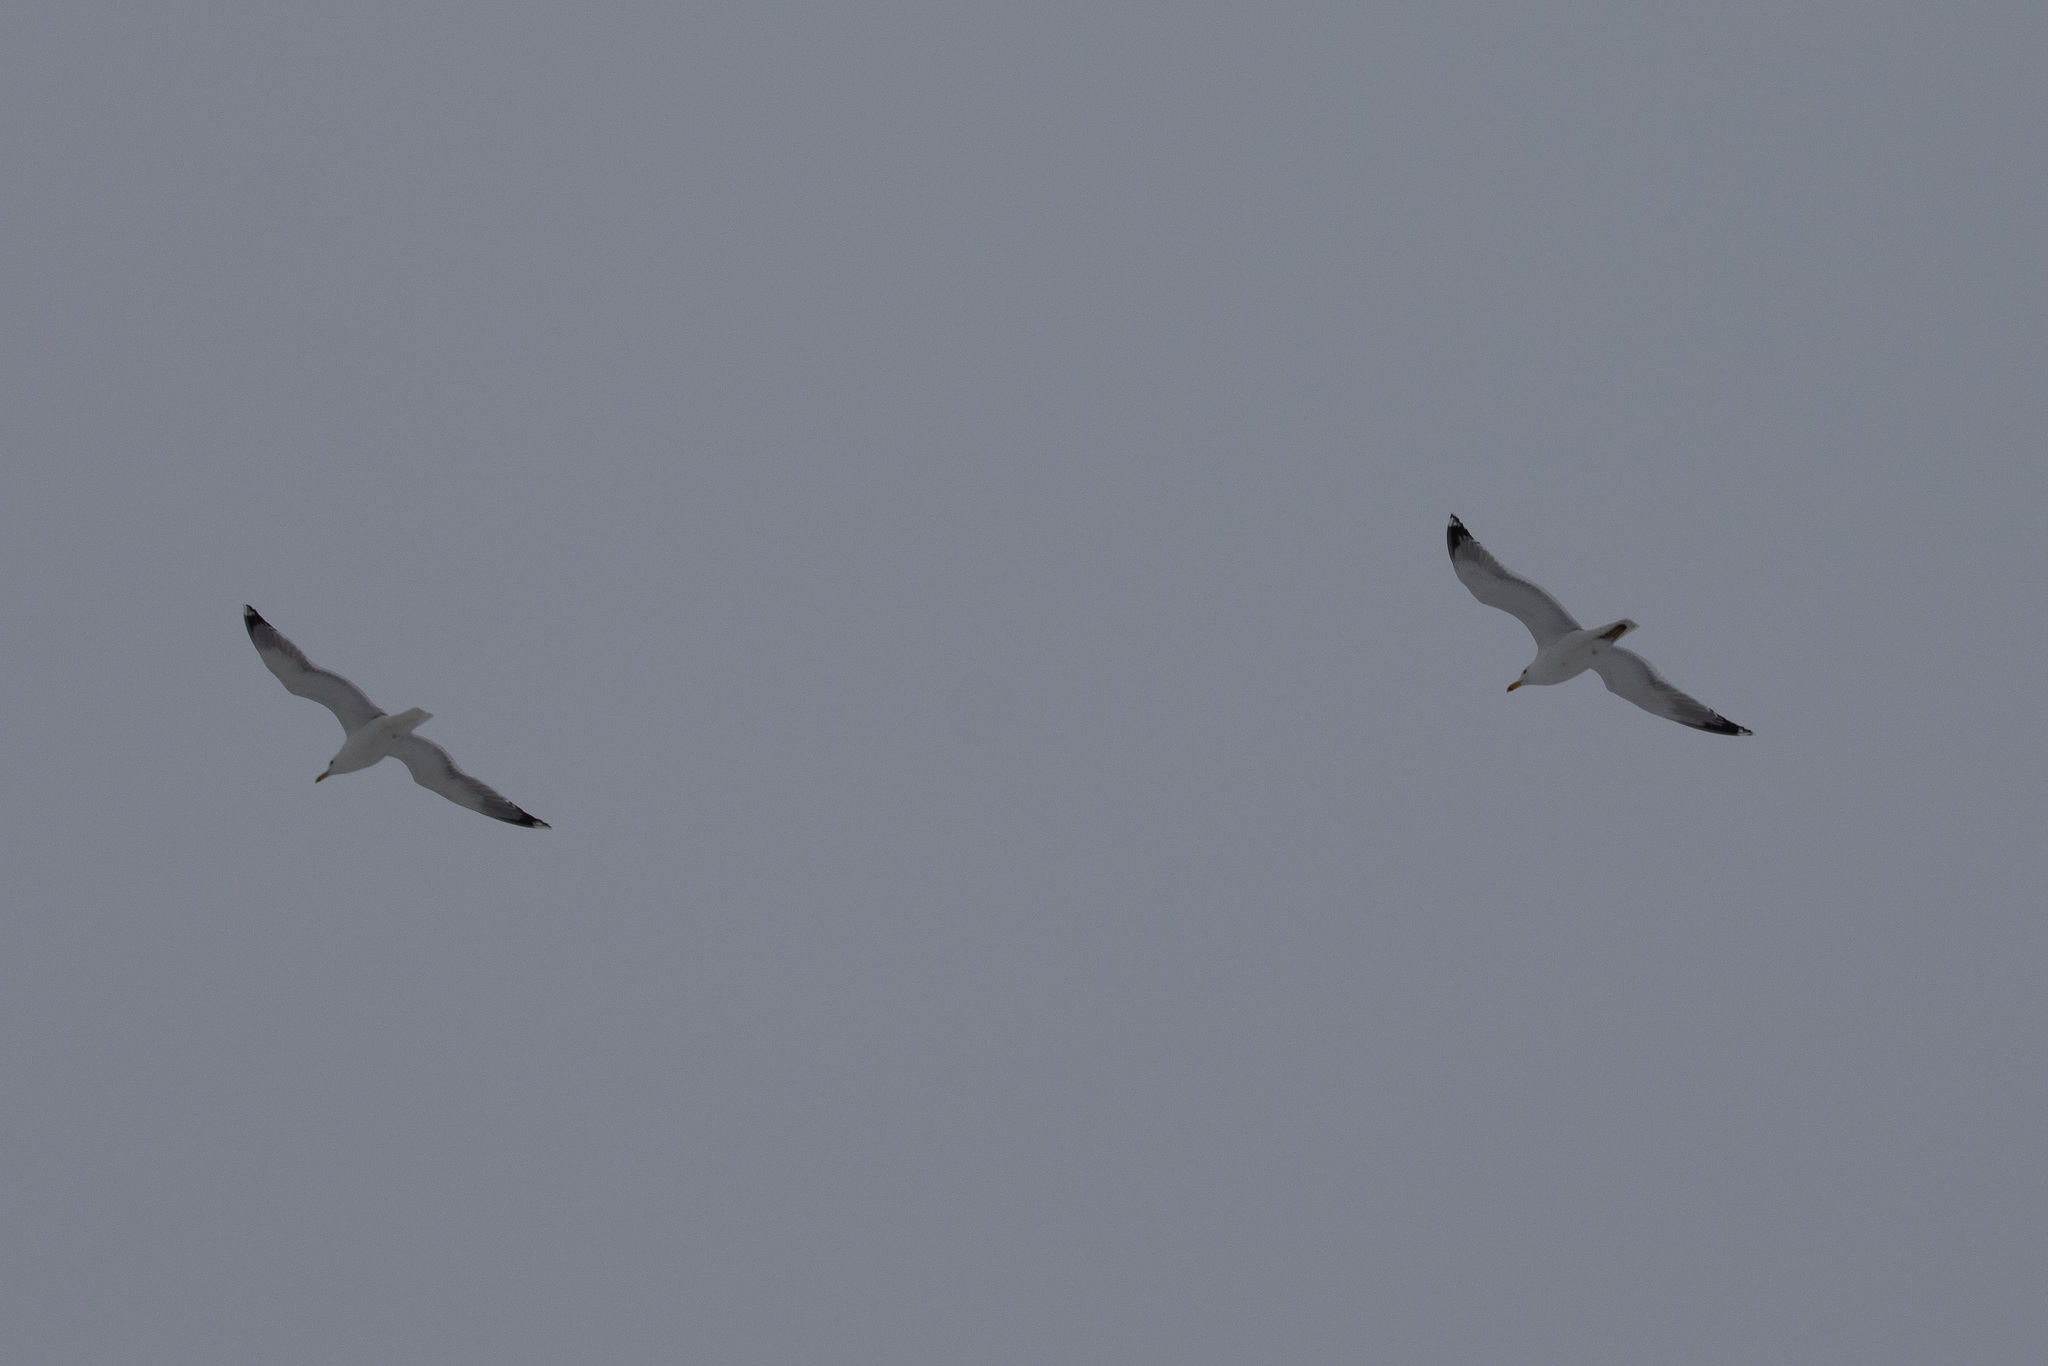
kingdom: Animalia
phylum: Chordata
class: Aves
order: Charadriiformes
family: Laridae
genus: Larus
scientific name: Larus argentatus
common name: Herring gull
